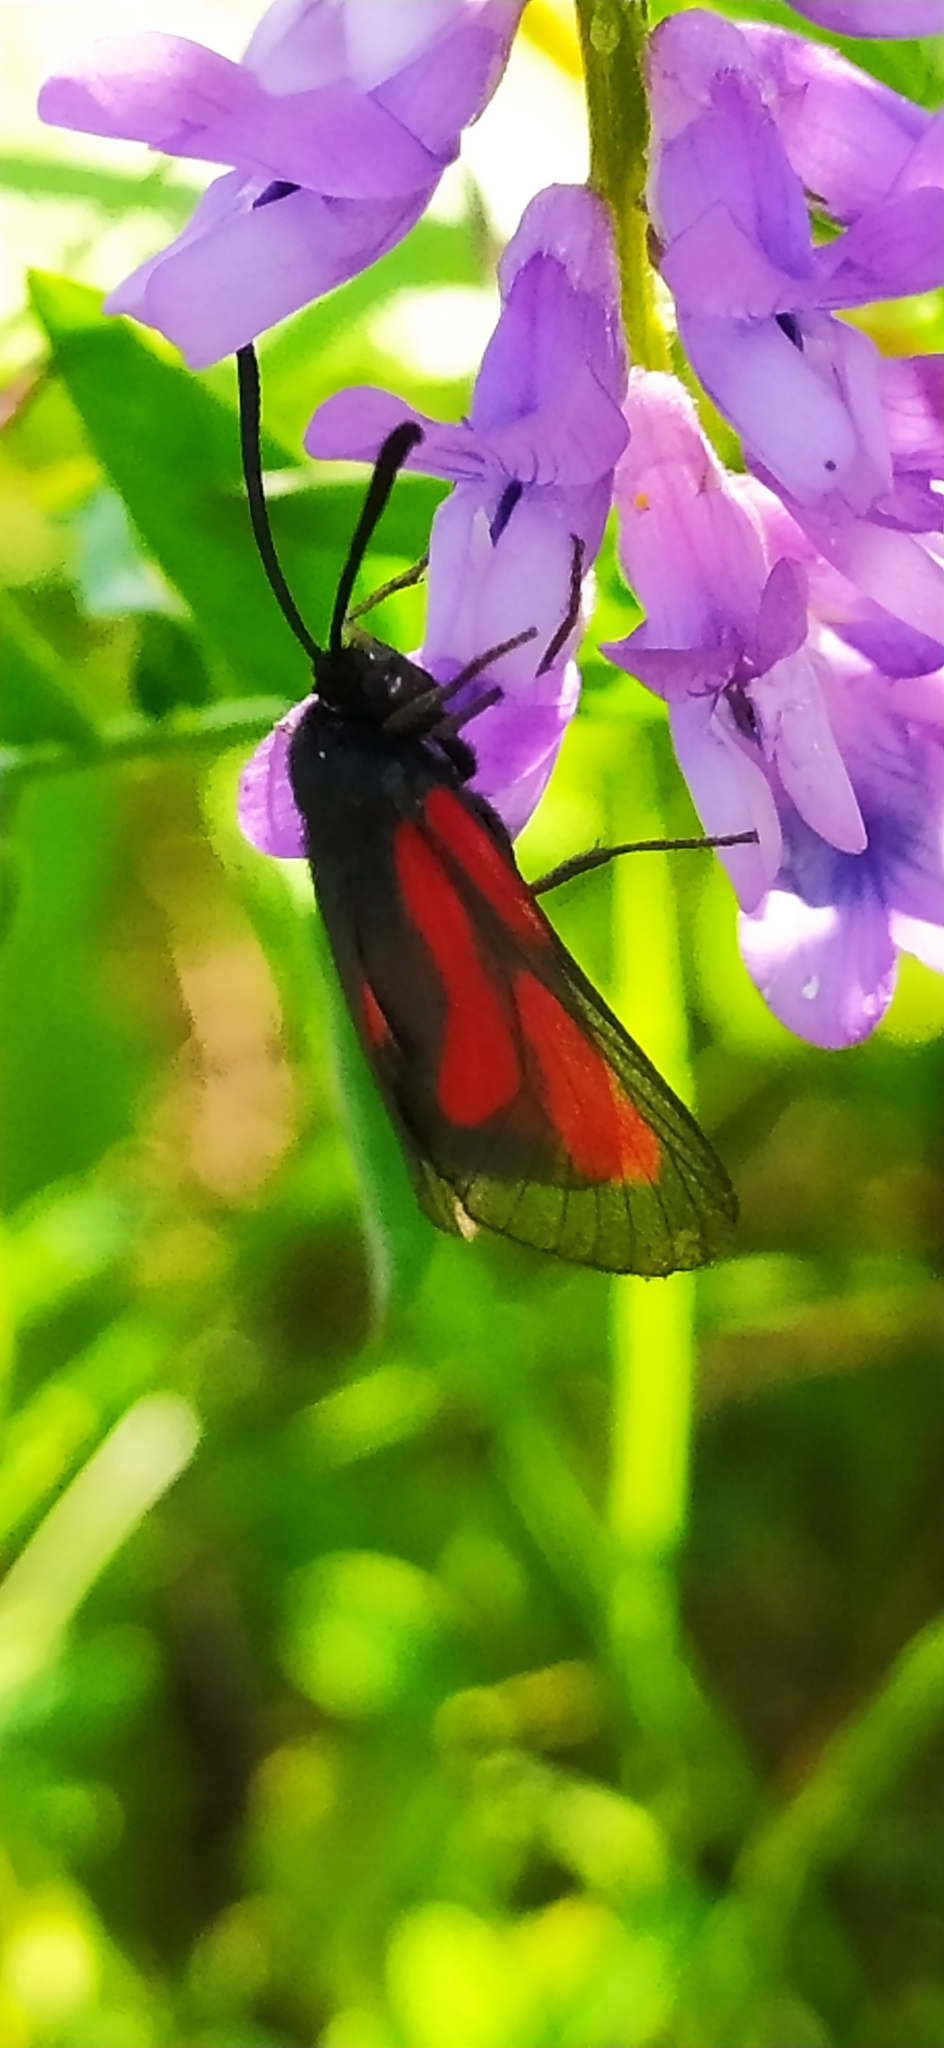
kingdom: Animalia
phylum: Arthropoda
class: Insecta
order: Lepidoptera
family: Zygaenidae
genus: Zygaena
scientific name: Zygaena osterodensis
